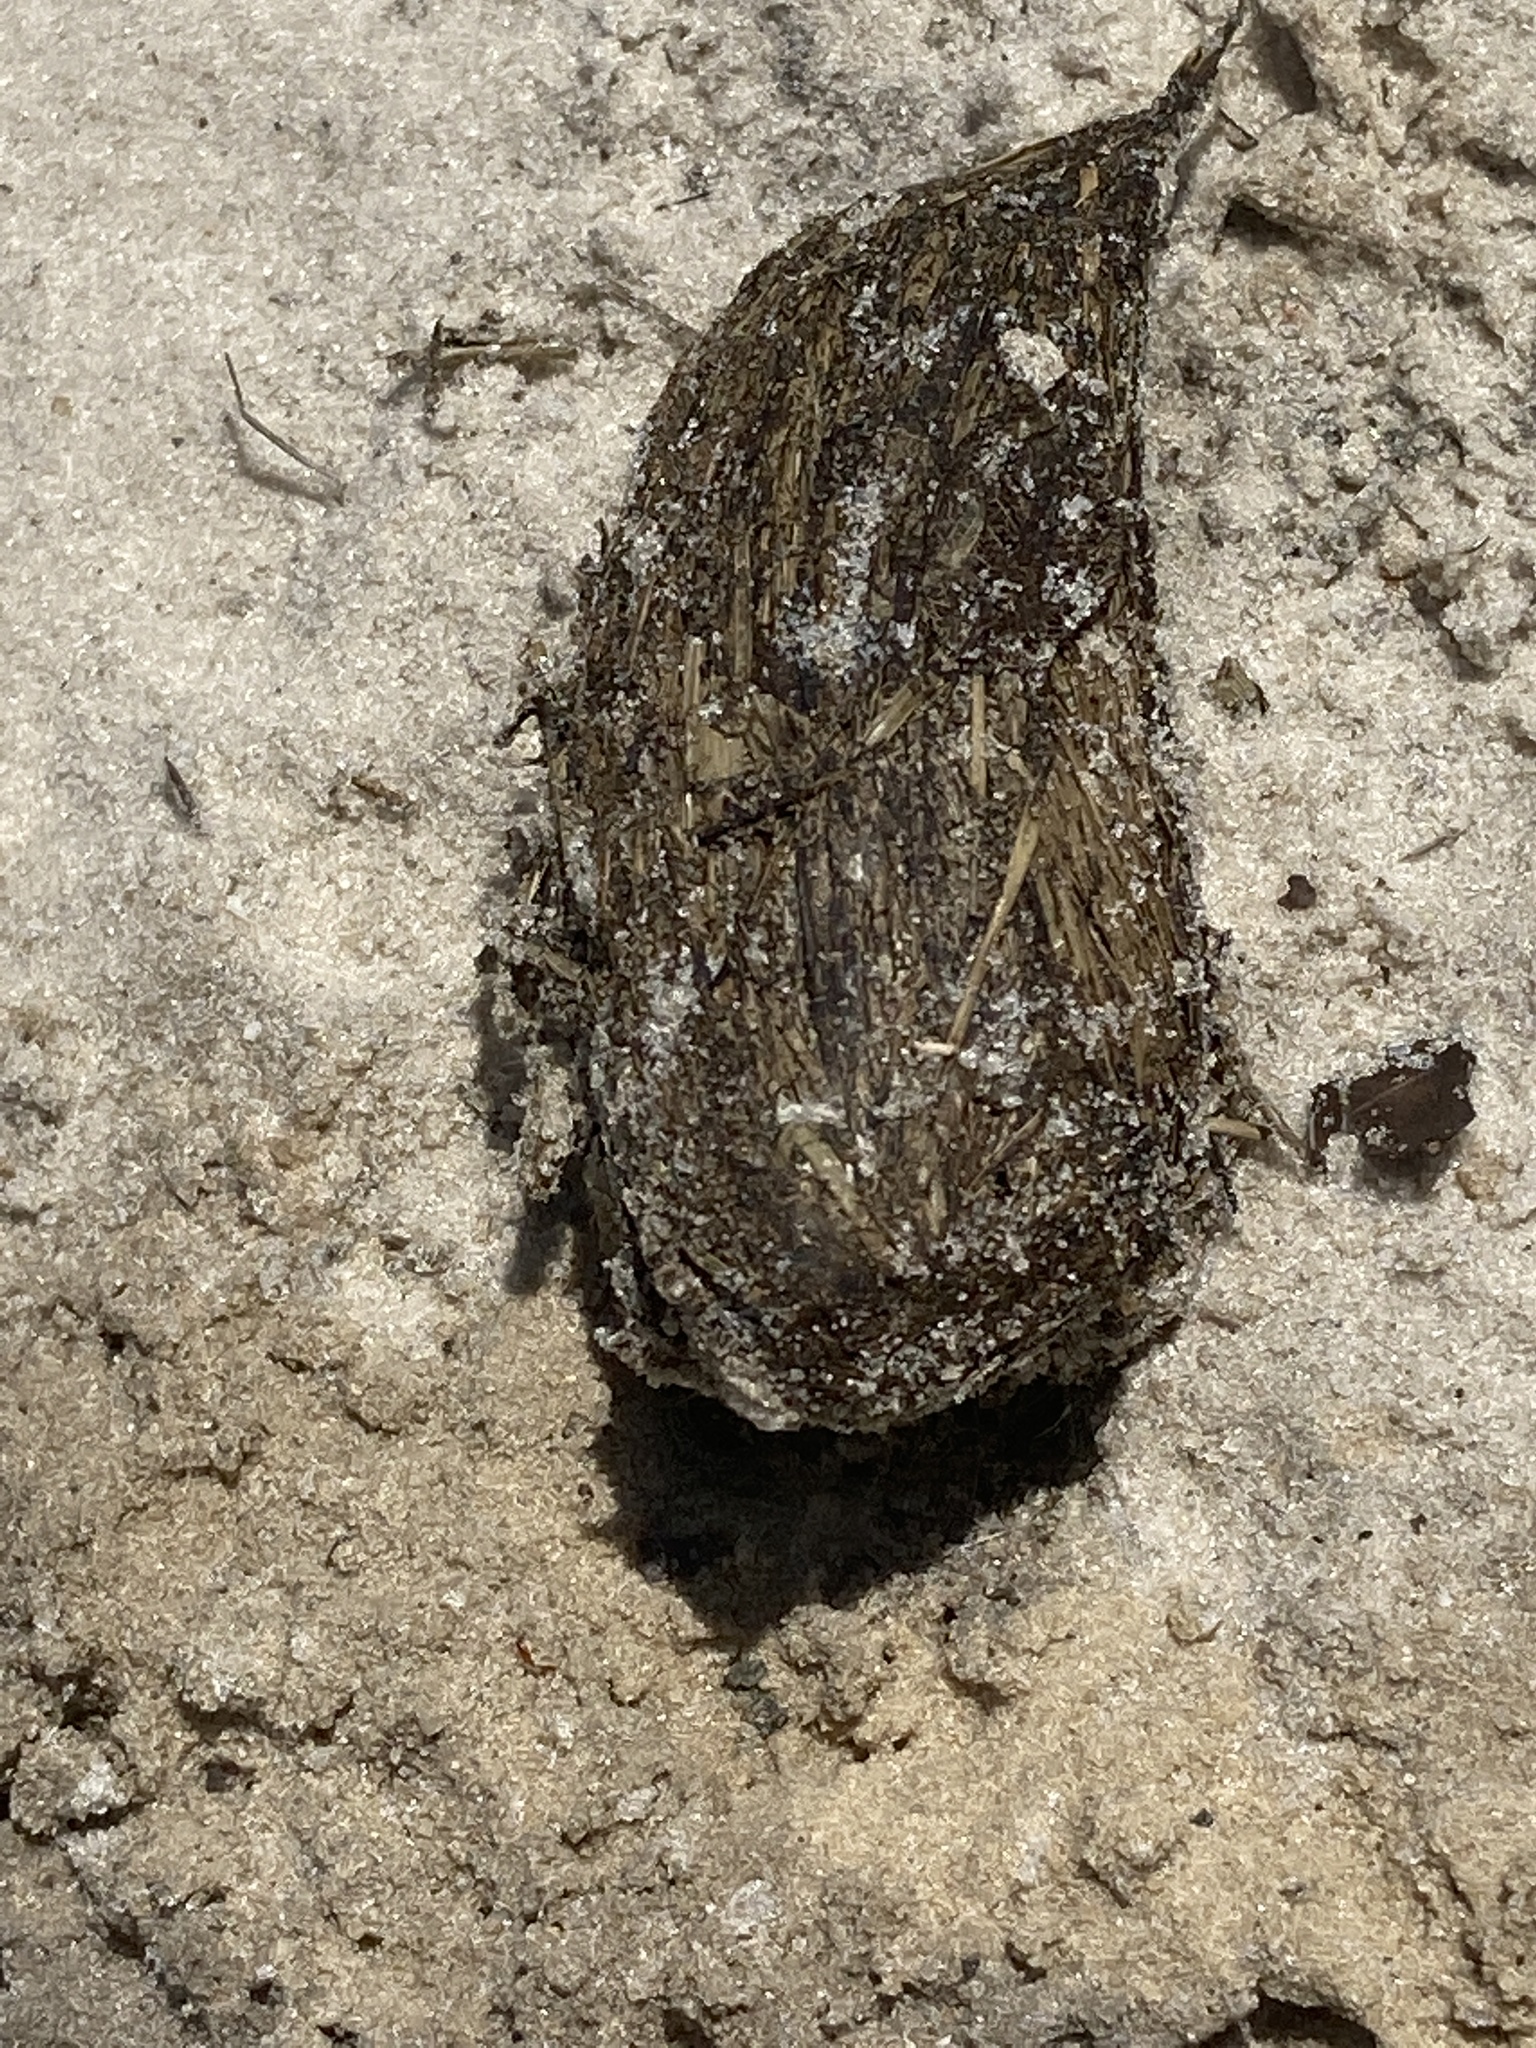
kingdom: Animalia
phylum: Chordata
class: Testudines
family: Testudinidae
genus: Gopherus
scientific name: Gopherus polyphemus
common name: Florida gopher tortoise
